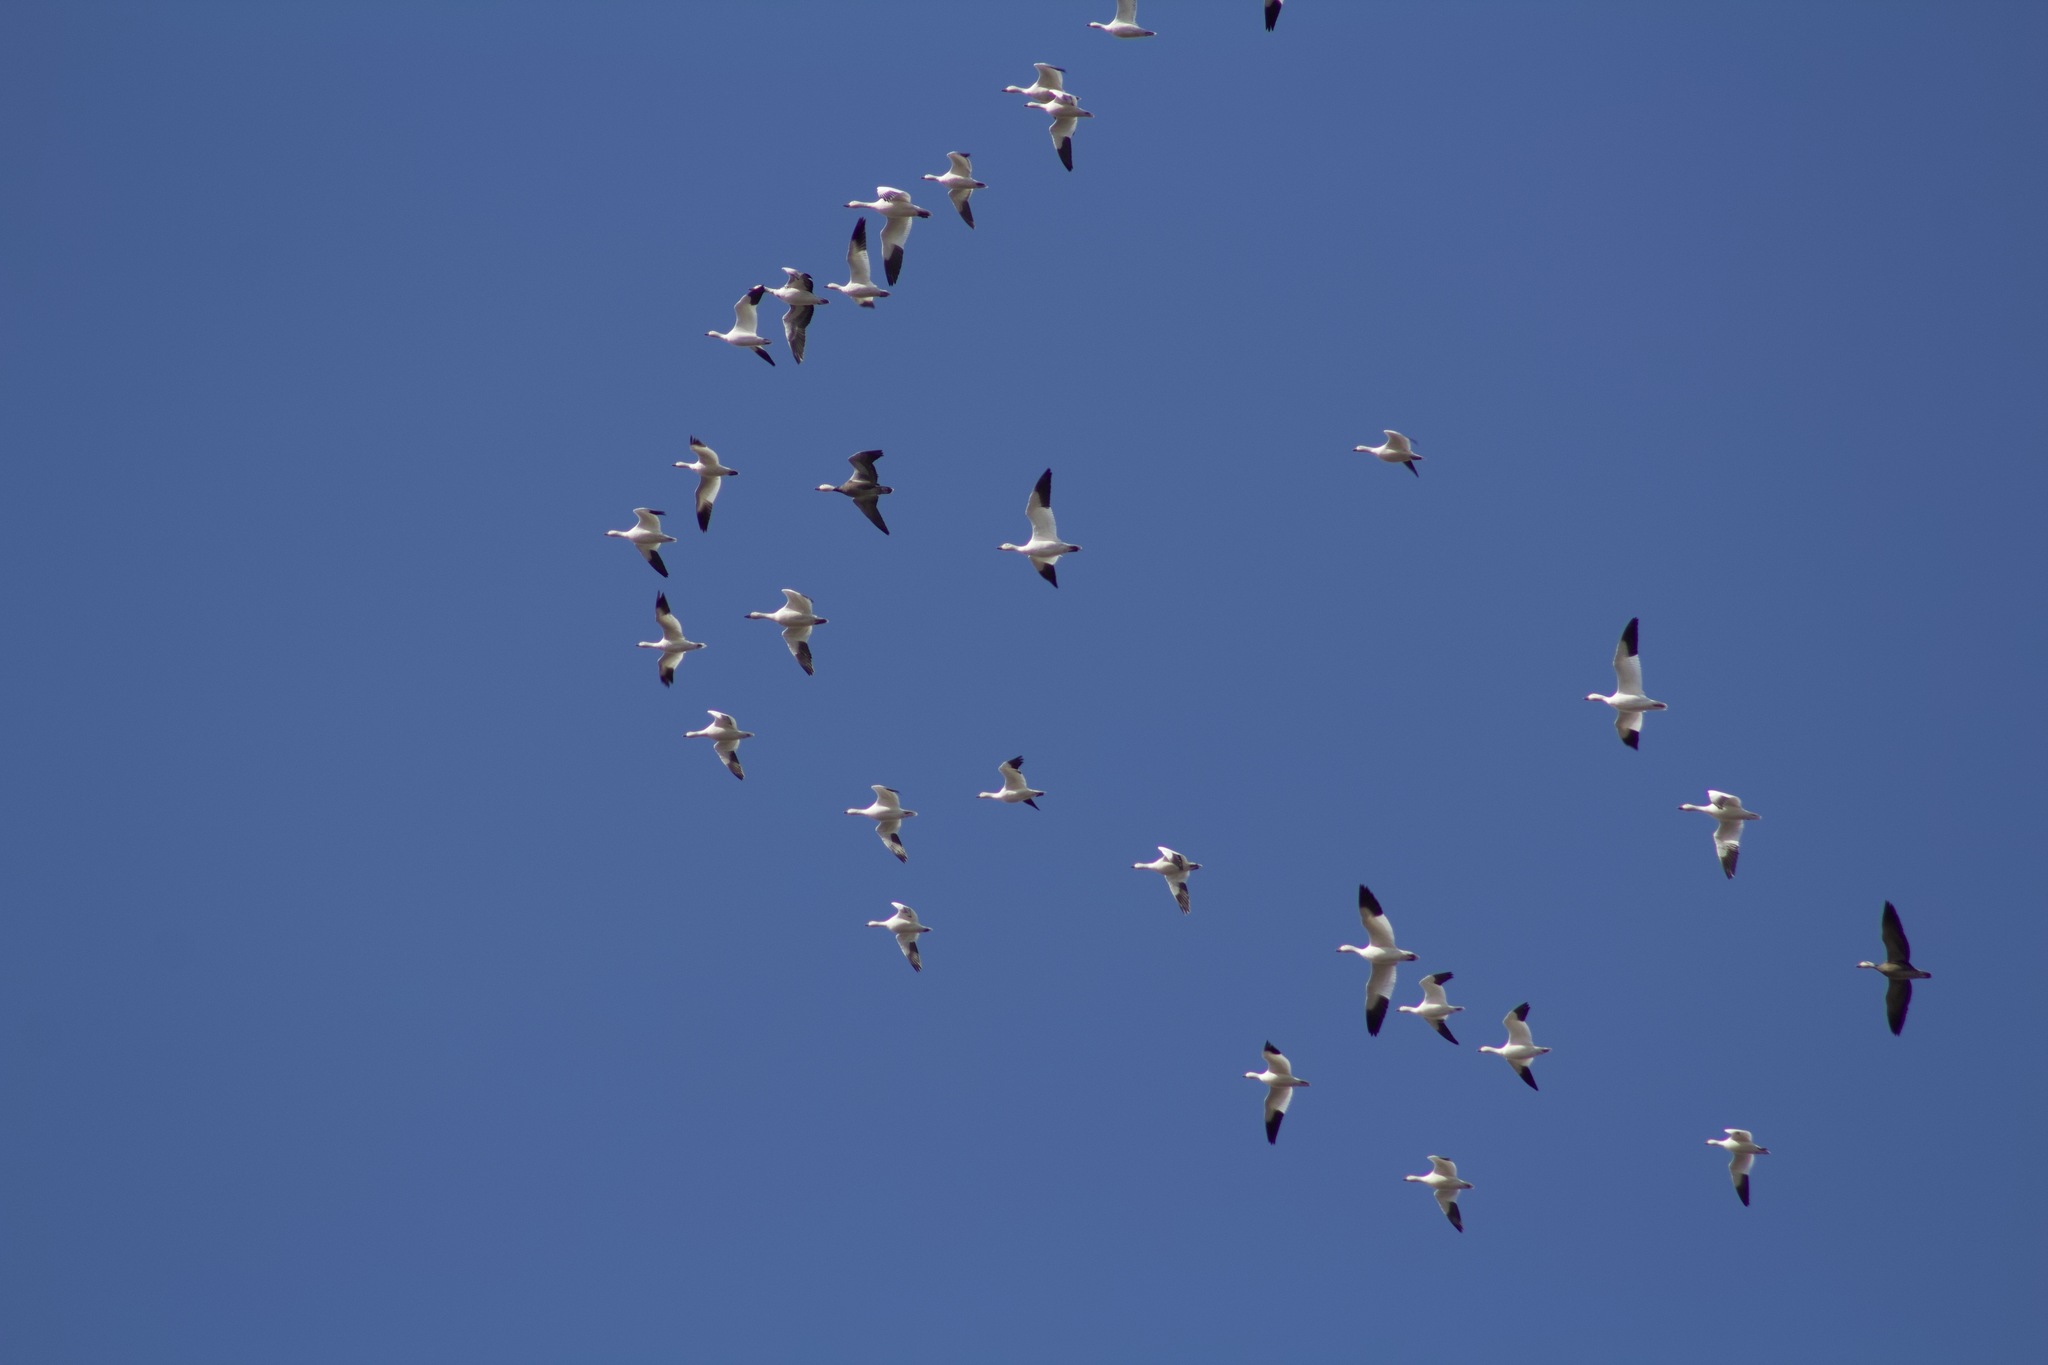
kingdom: Animalia
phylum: Chordata
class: Aves
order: Anseriformes
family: Anatidae
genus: Anser
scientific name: Anser caerulescens
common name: Snow goose
